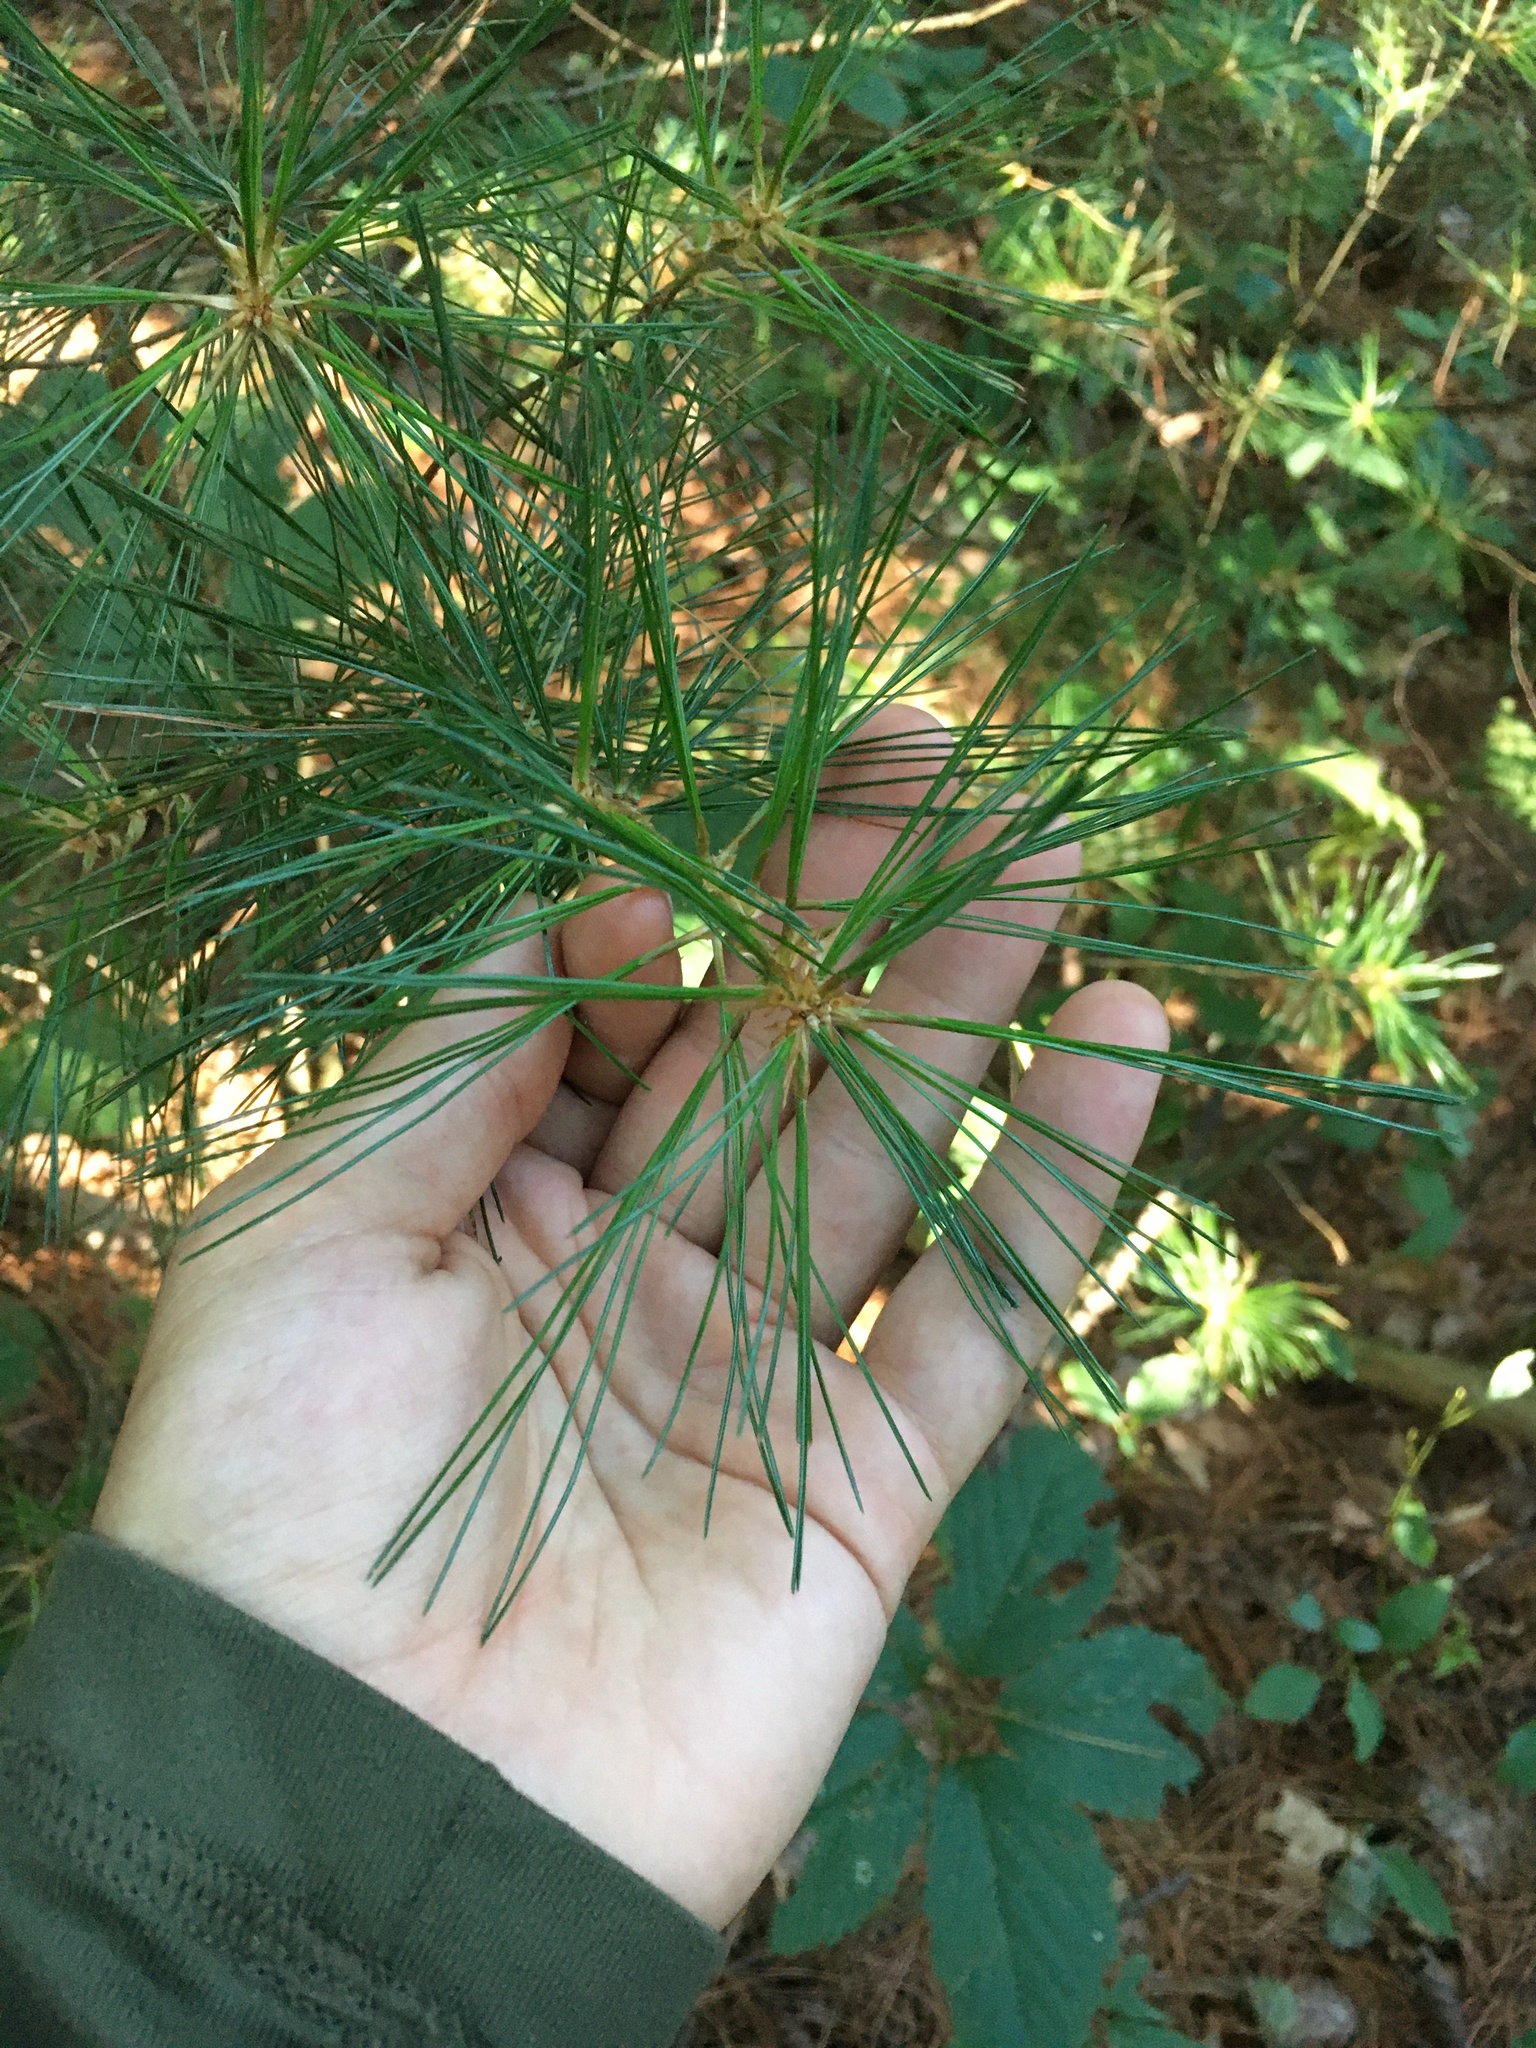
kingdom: Plantae
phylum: Tracheophyta
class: Pinopsida
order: Pinales
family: Pinaceae
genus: Pinus
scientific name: Pinus strobus
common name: Weymouth pine
